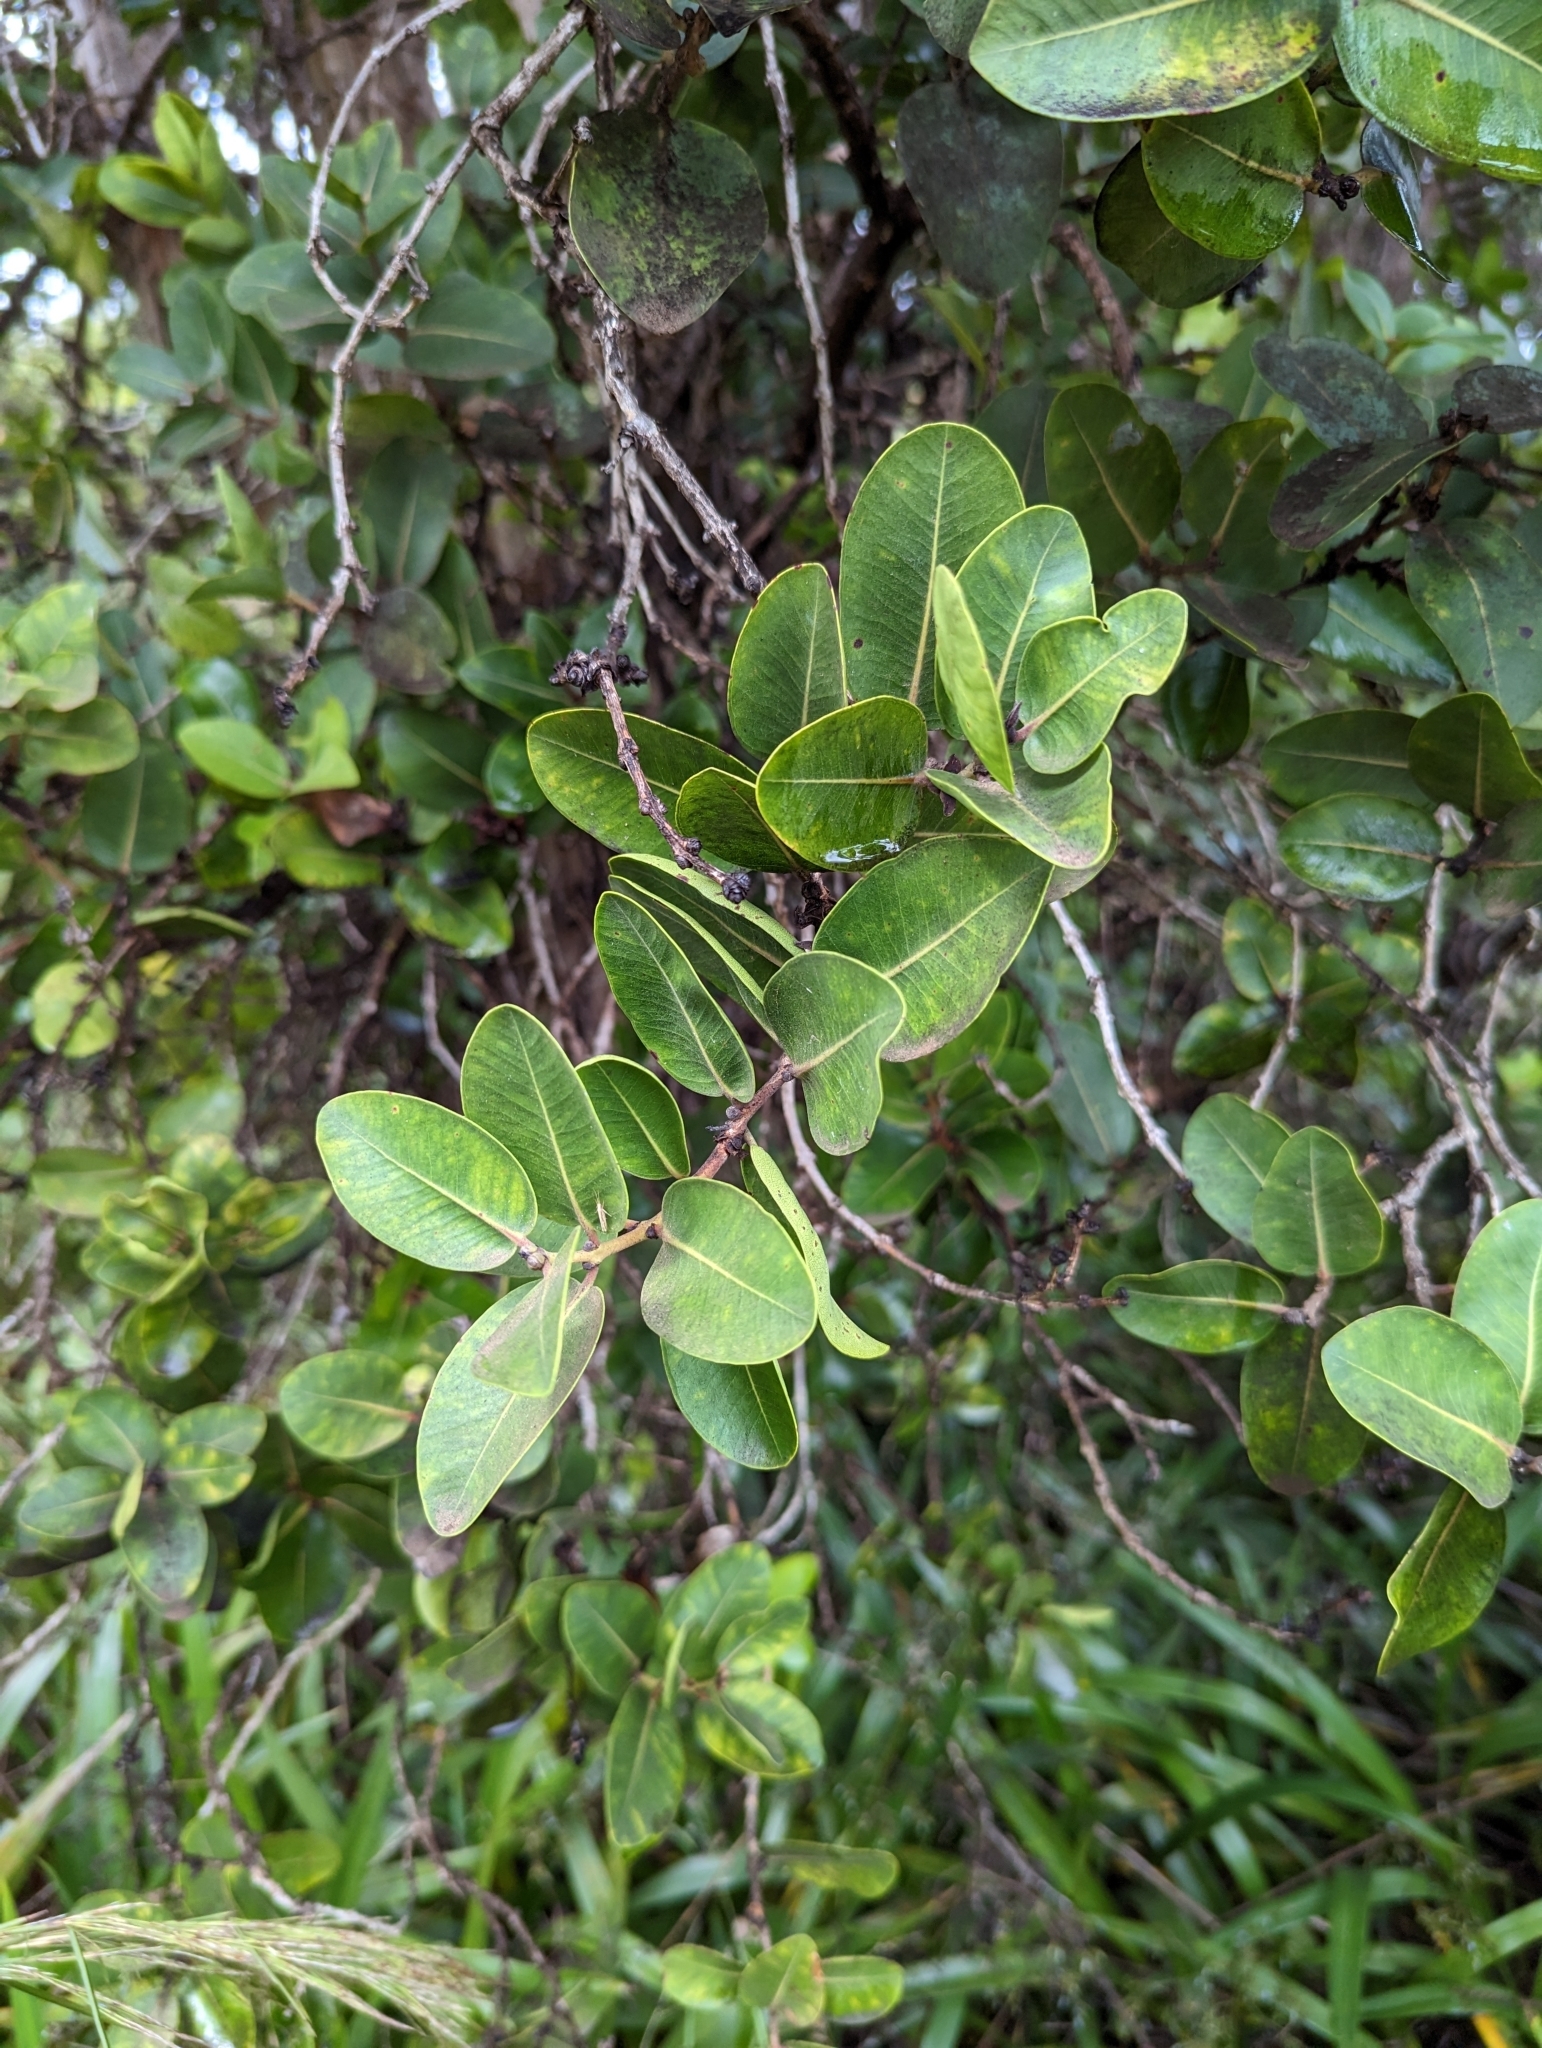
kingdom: Plantae
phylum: Tracheophyta
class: Magnoliopsida
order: Myrtales
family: Myrtaceae
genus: Metrosideros
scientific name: Metrosideros polymorpha
